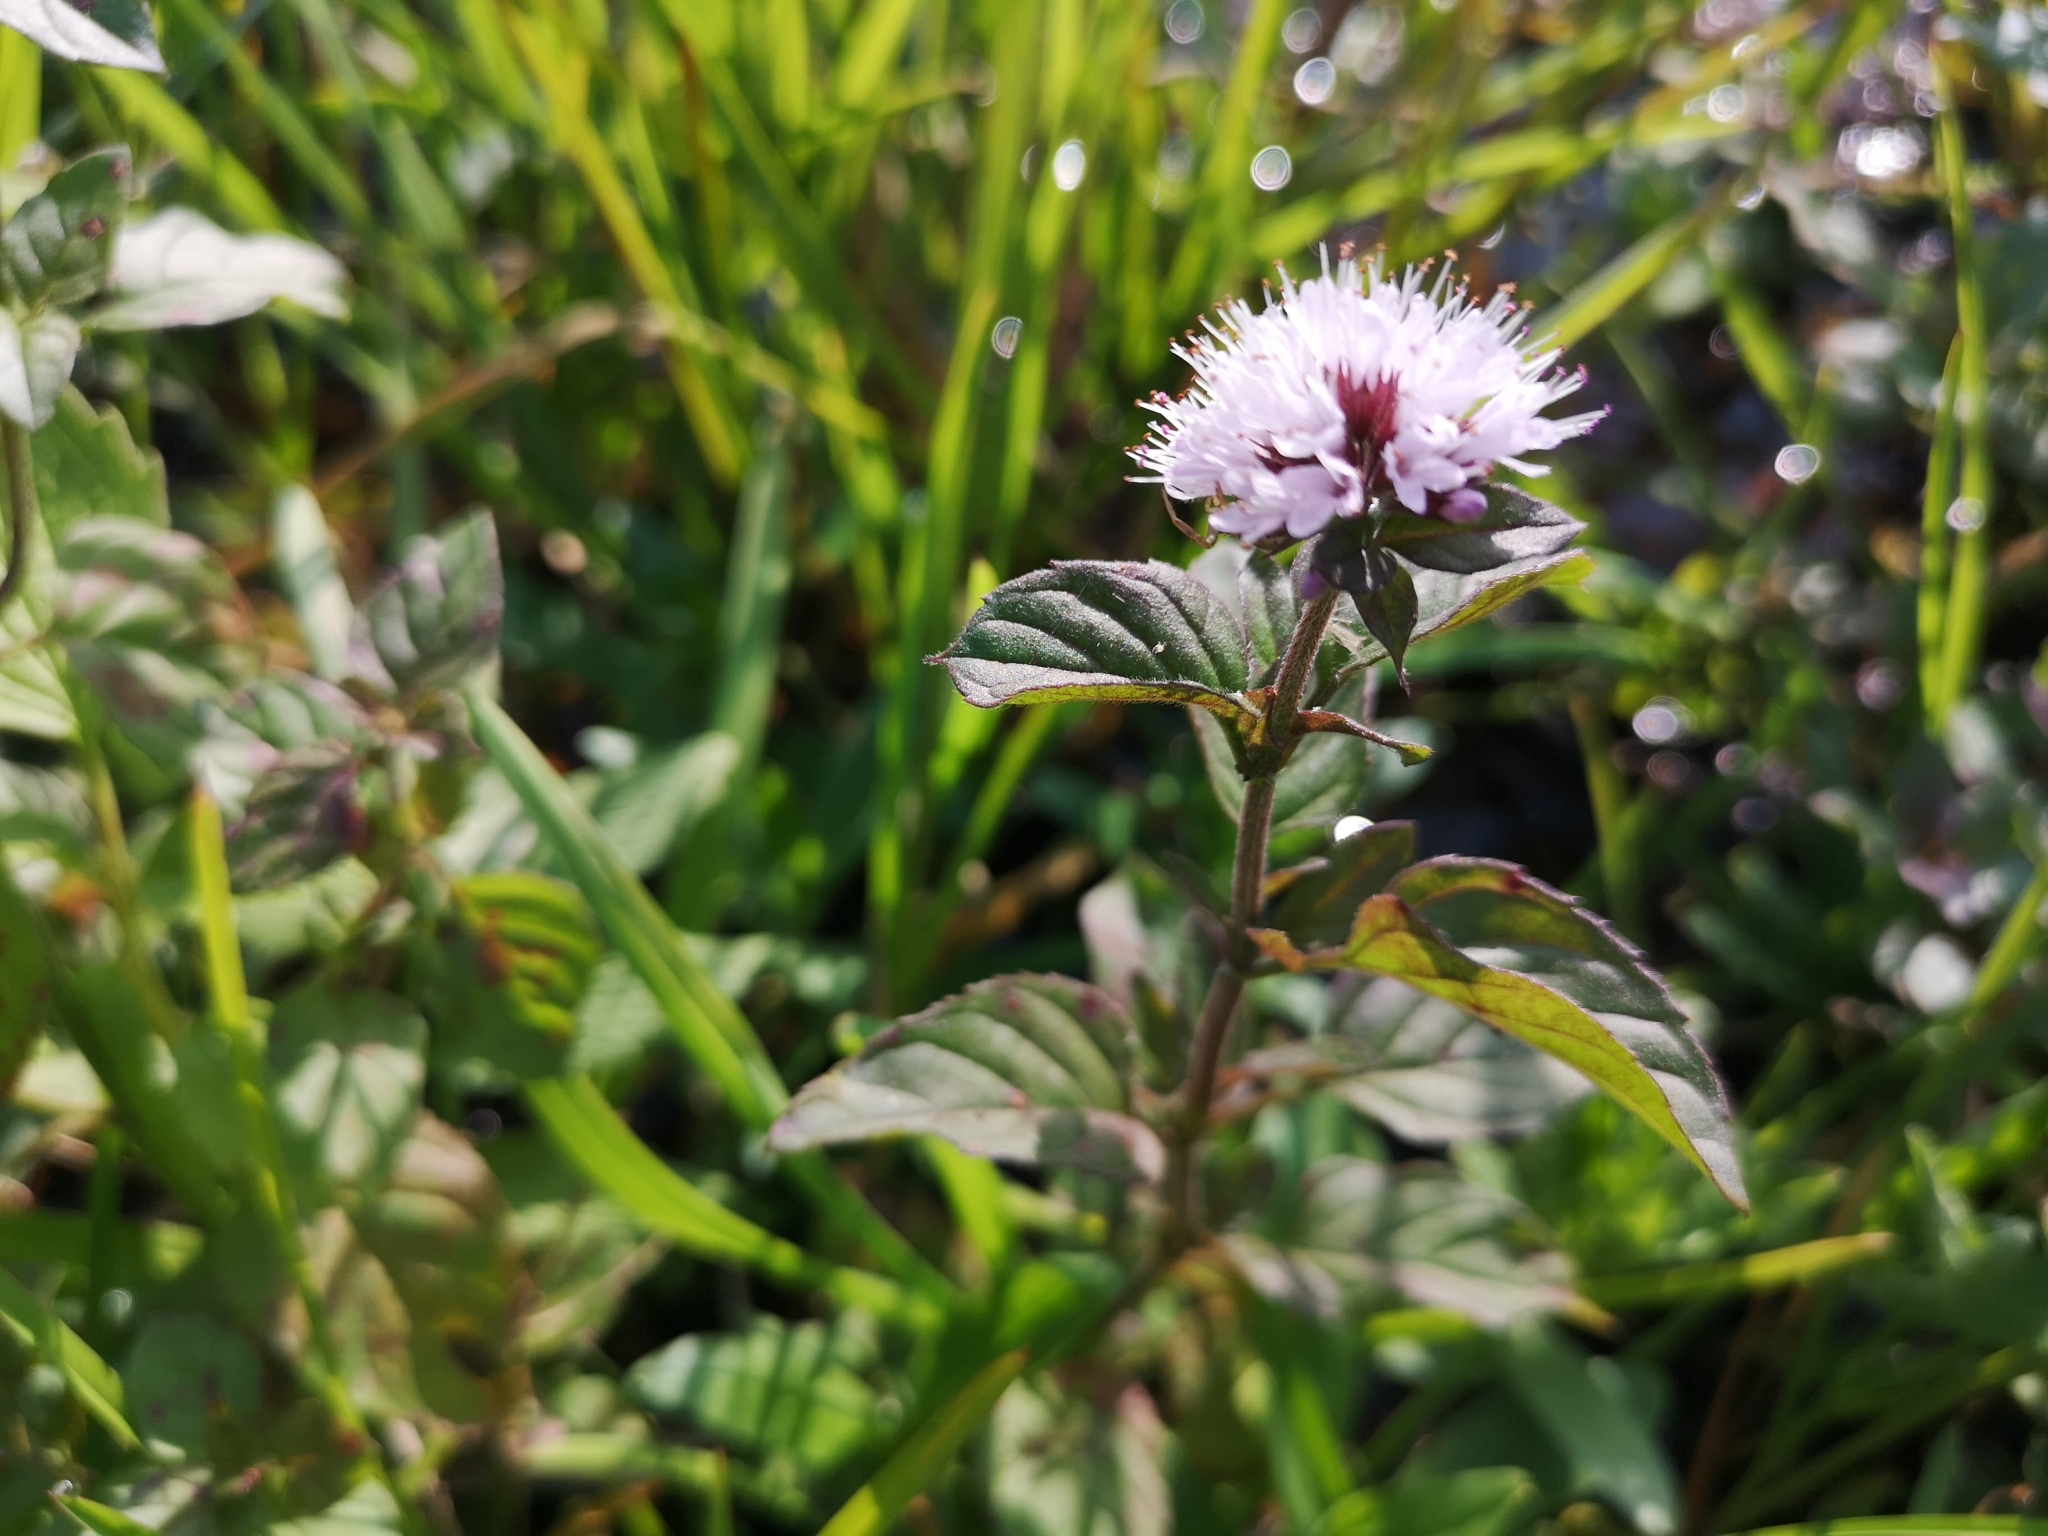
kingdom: Plantae
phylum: Tracheophyta
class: Magnoliopsida
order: Lamiales
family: Lamiaceae
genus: Mentha
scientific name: Mentha aquatica
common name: Water mint
